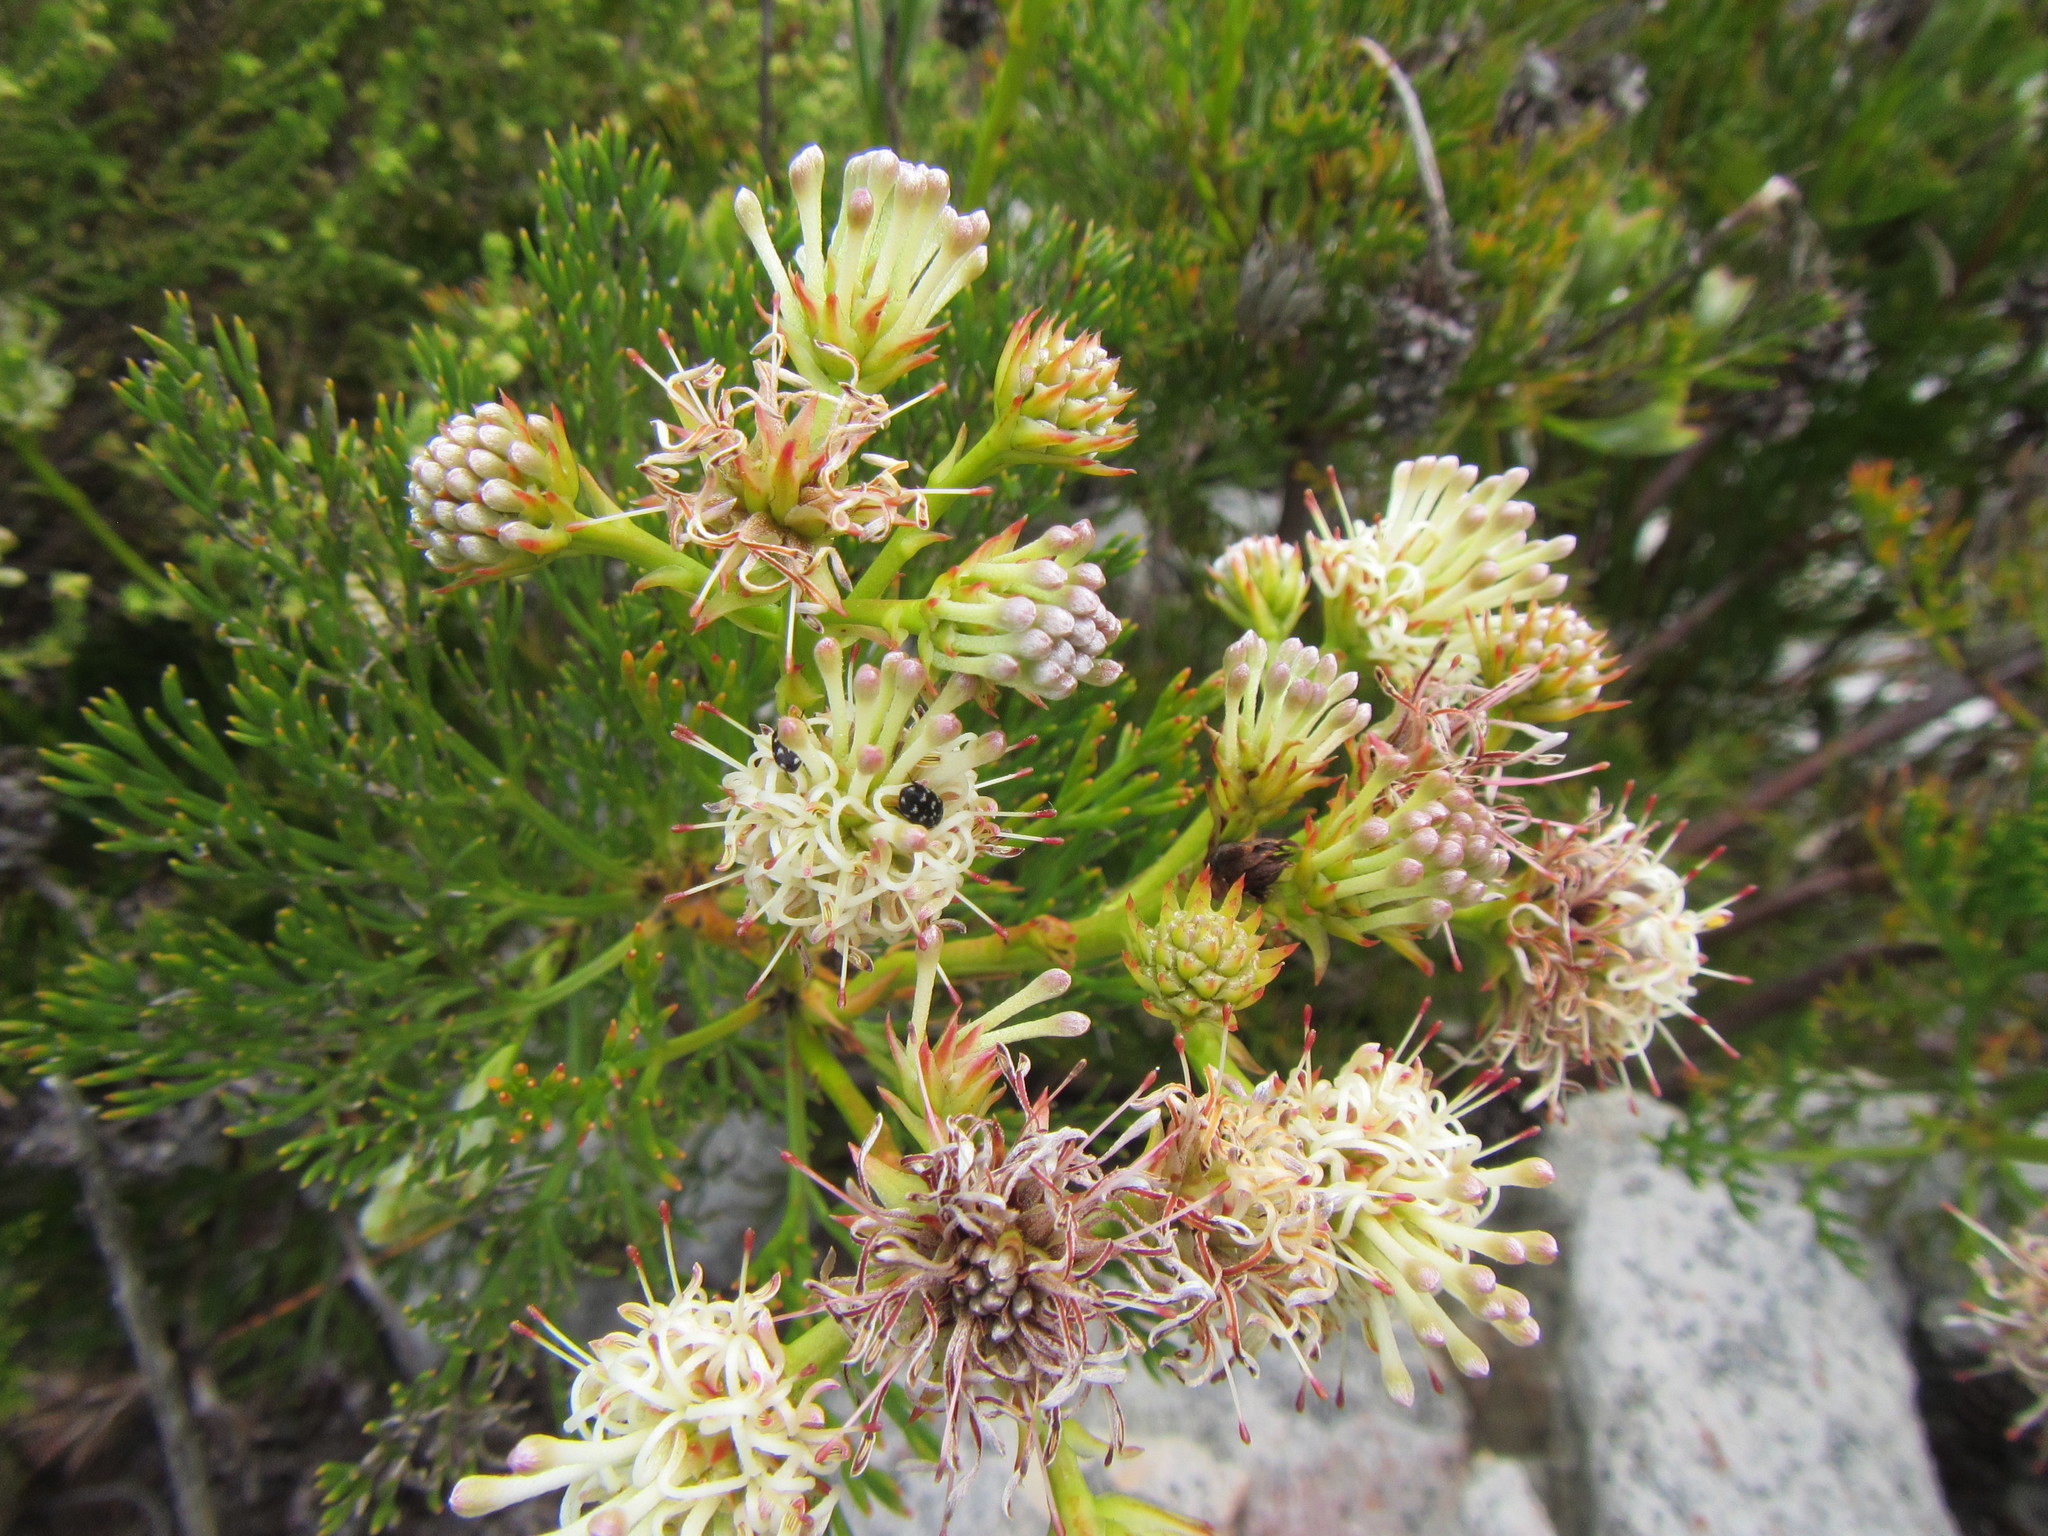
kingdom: Plantae
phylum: Tracheophyta
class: Magnoliopsida
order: Proteales
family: Proteaceae
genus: Serruria
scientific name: Serruria elongata
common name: Long-stalk spiderhead
